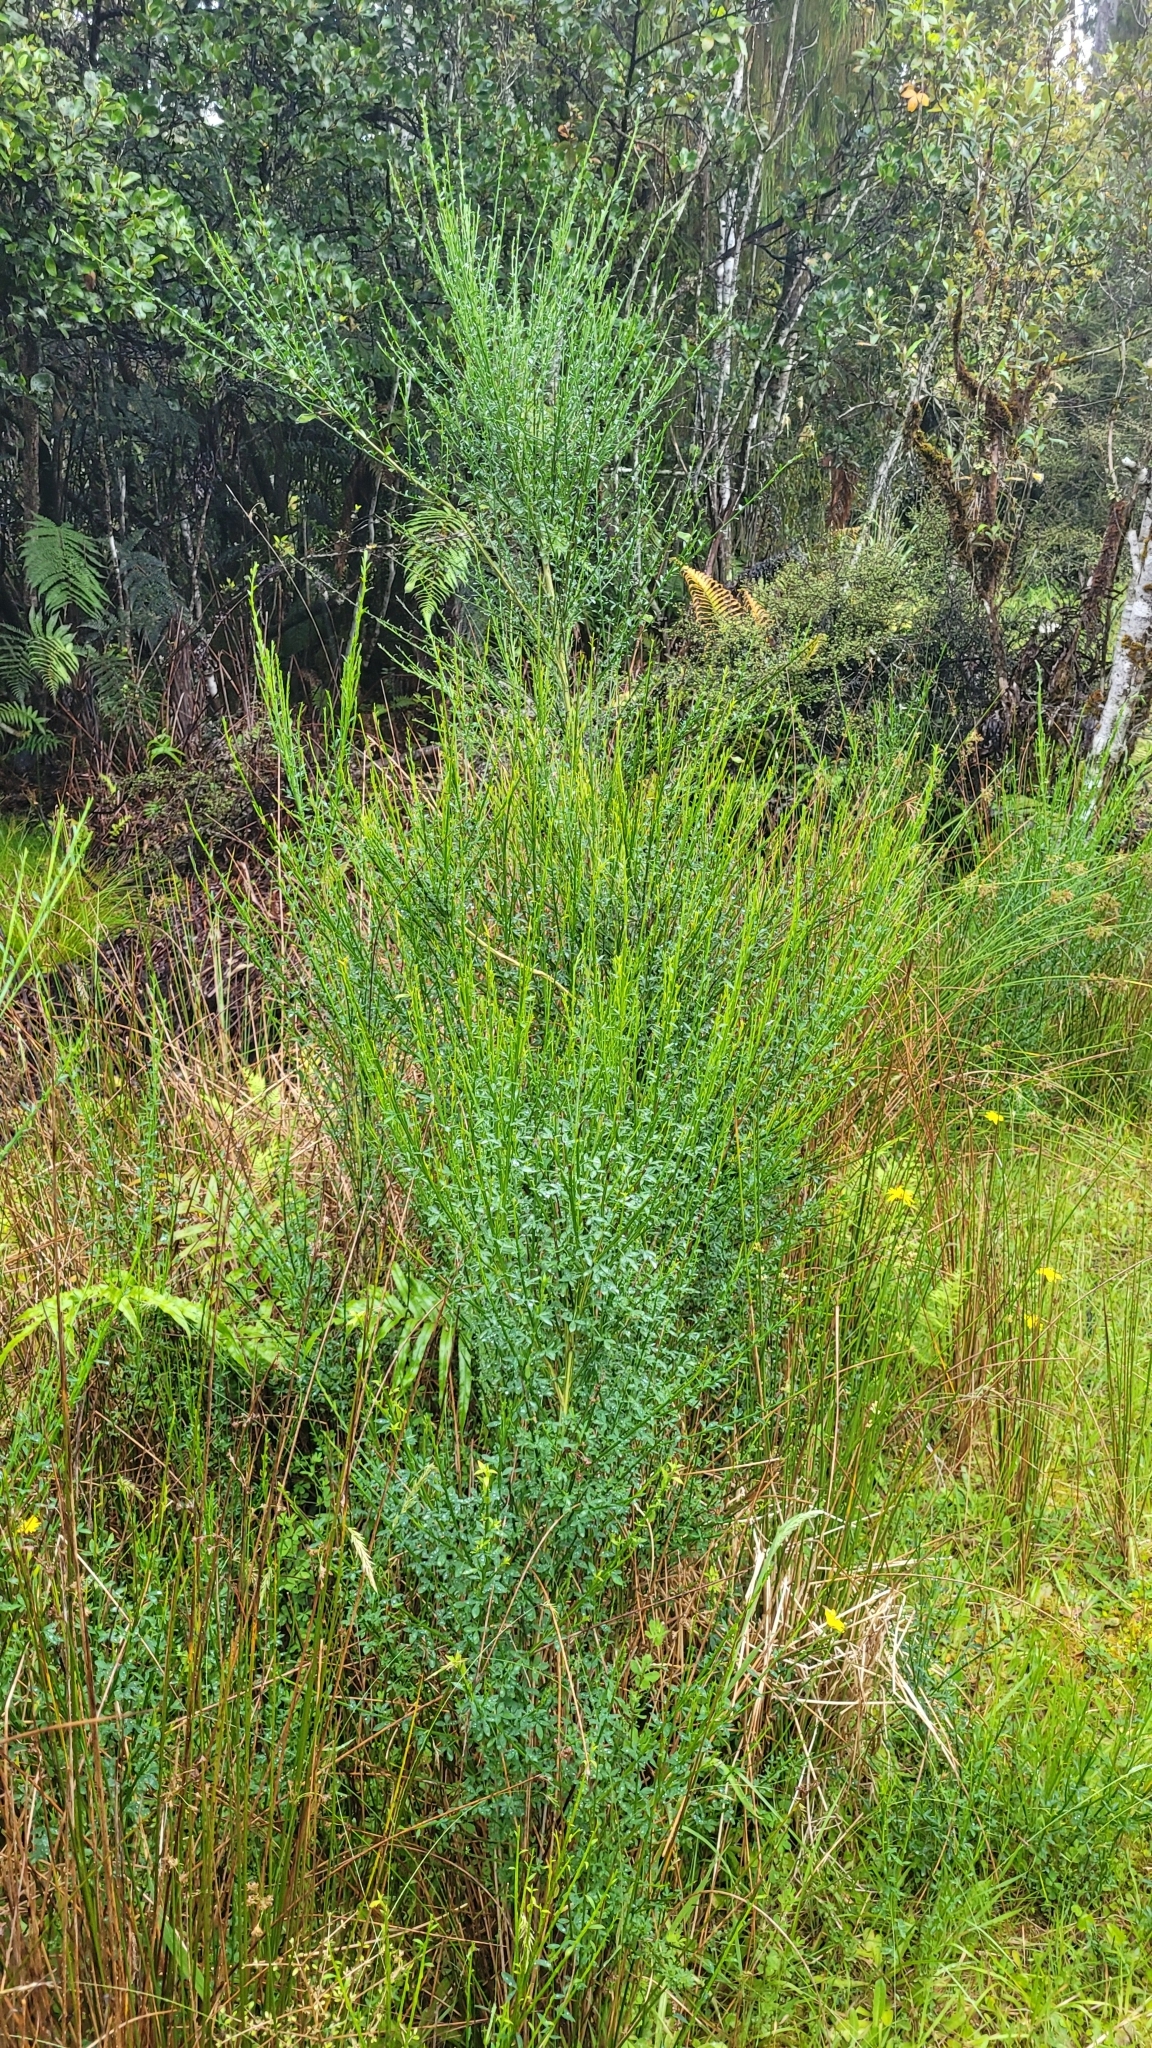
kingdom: Plantae
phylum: Tracheophyta
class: Magnoliopsida
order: Fabales
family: Fabaceae
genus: Cytisus
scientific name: Cytisus scoparius
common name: Scotch broom
